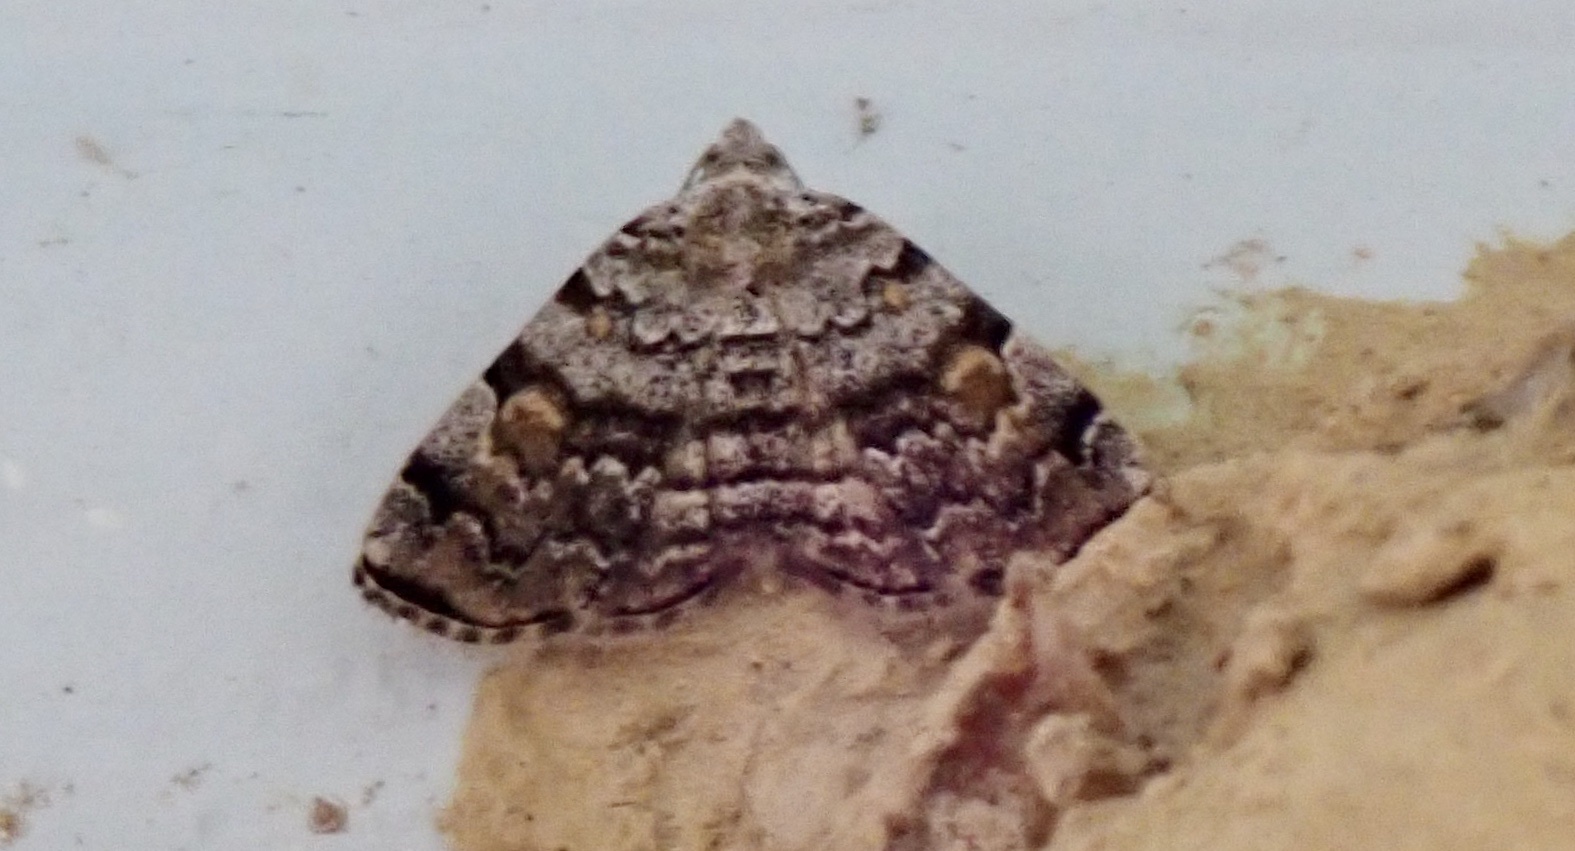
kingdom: Animalia
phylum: Arthropoda
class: Insecta
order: Lepidoptera
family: Erebidae
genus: Idia
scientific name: Idia americalis
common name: American idia moth
